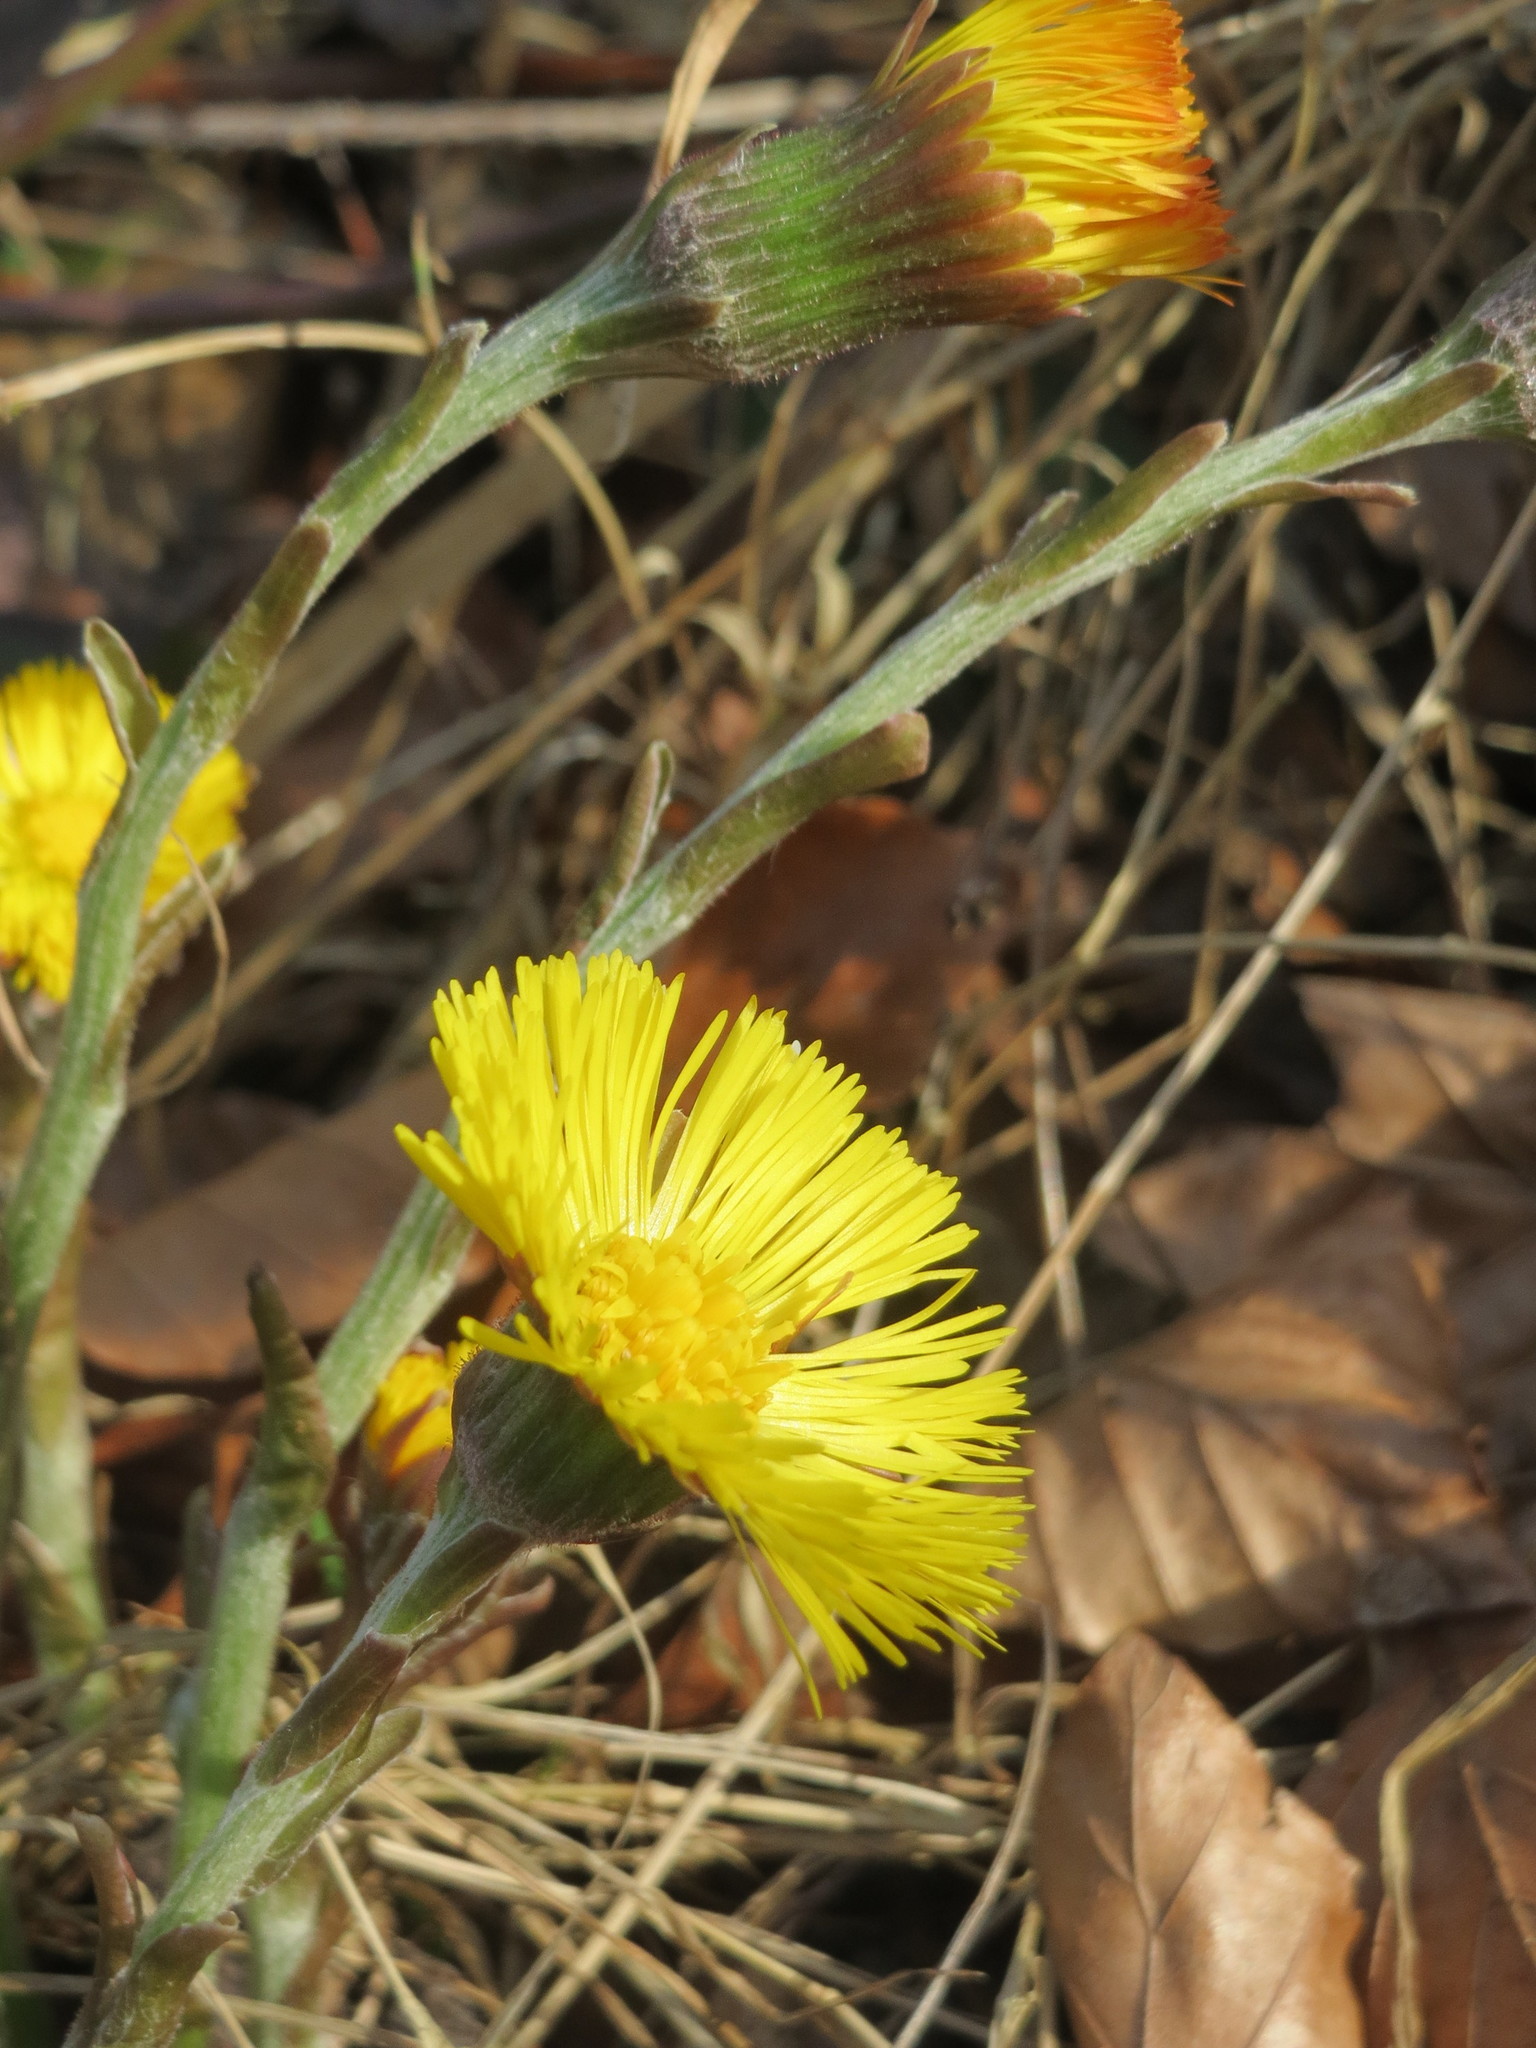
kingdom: Plantae
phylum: Tracheophyta
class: Magnoliopsida
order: Asterales
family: Asteraceae
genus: Tussilago
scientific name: Tussilago farfara
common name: Coltsfoot
